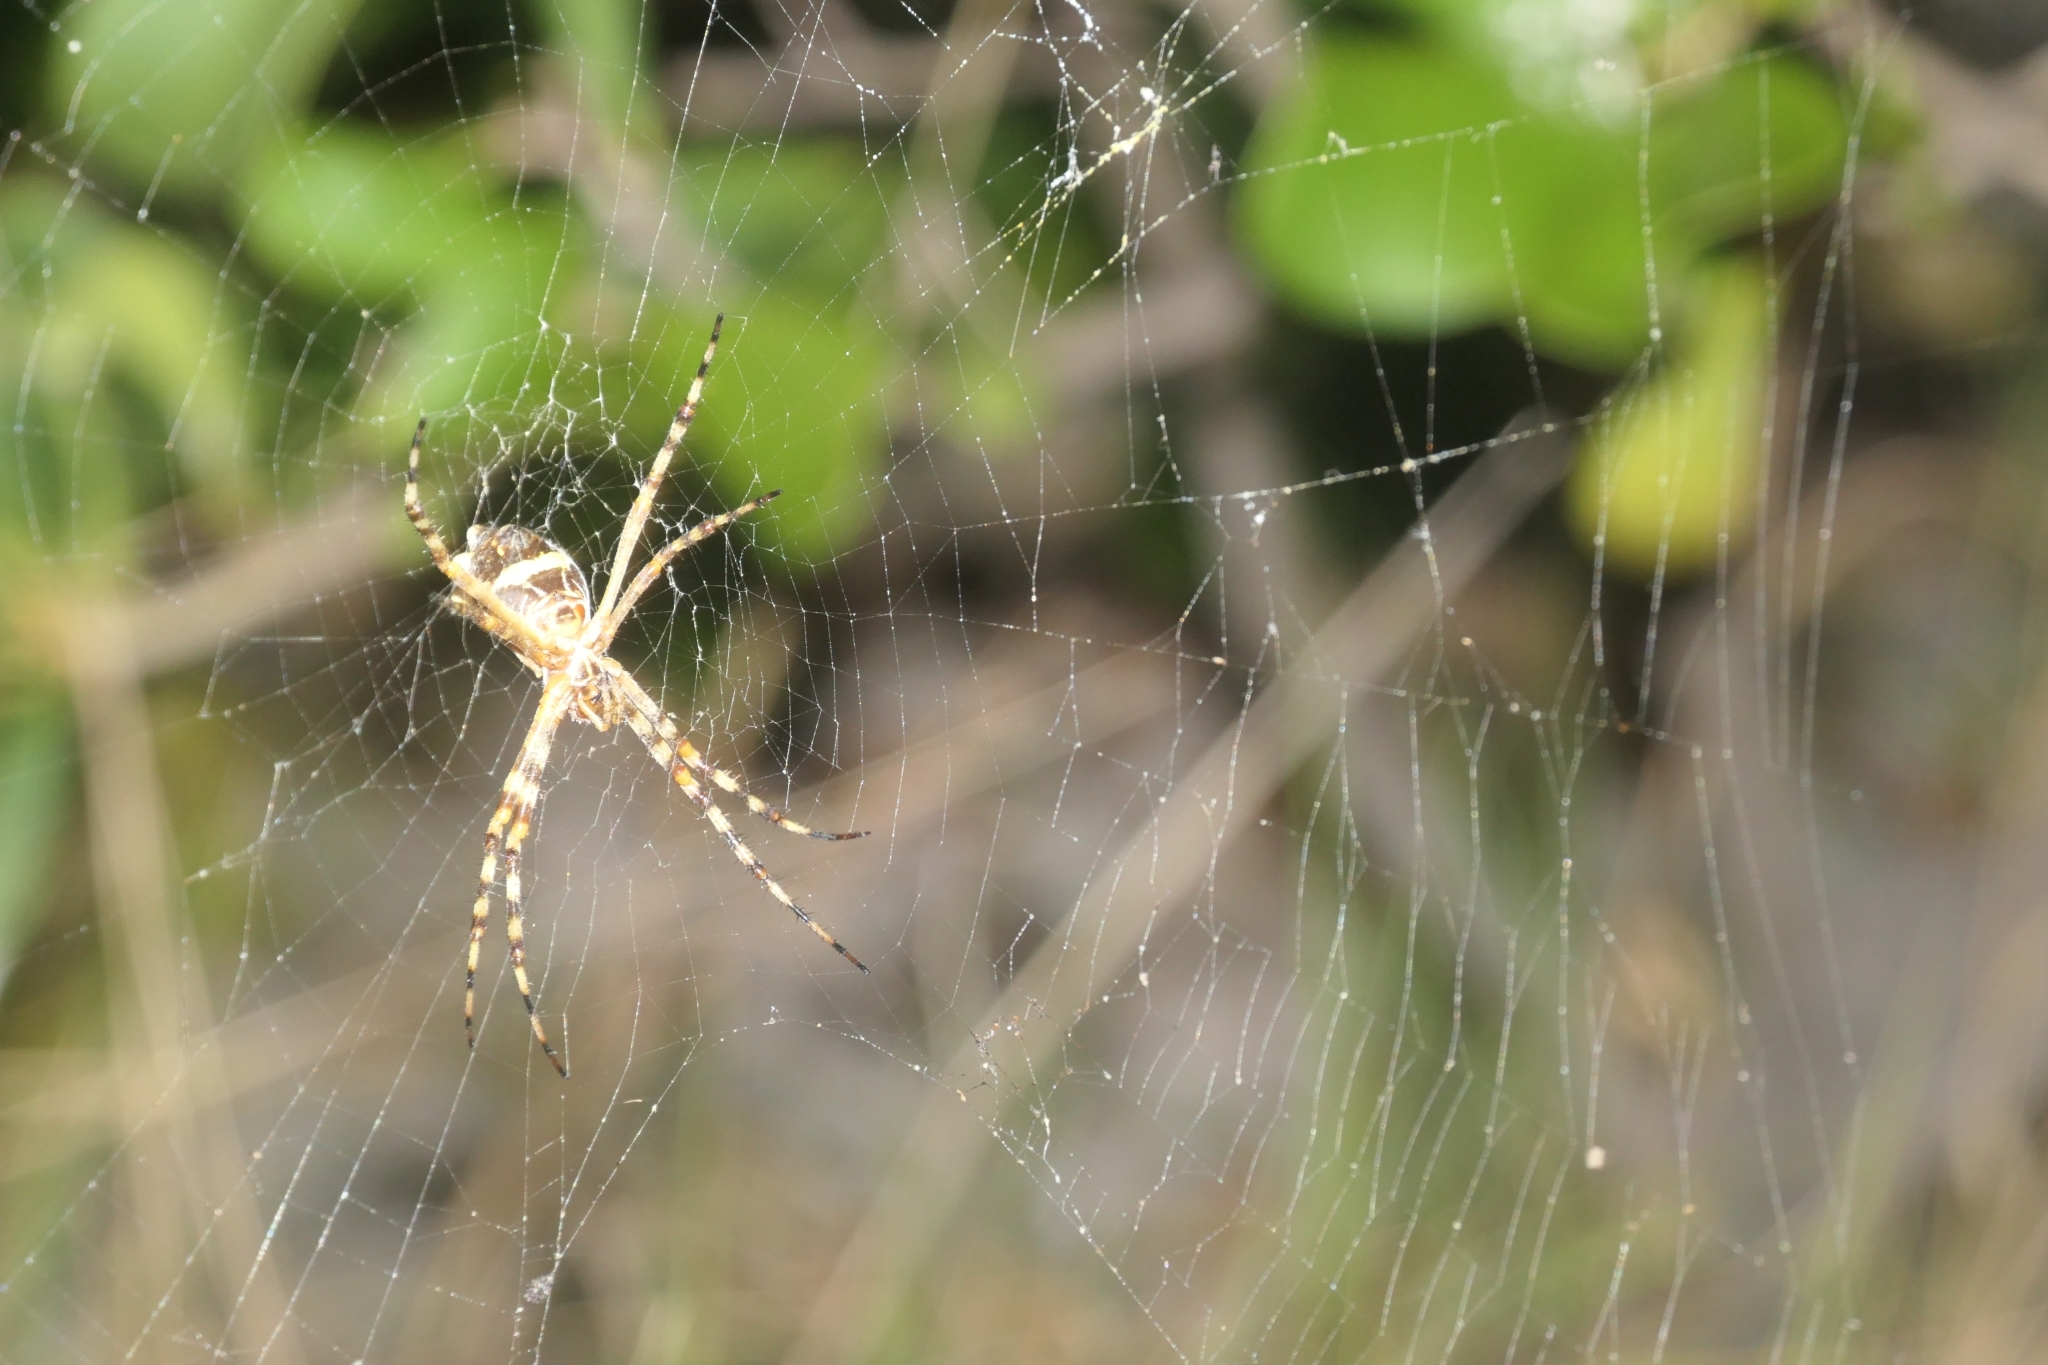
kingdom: Animalia
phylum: Arthropoda
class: Arachnida
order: Araneae
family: Araneidae
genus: Argiope
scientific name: Argiope argentata
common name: Orb weavers
